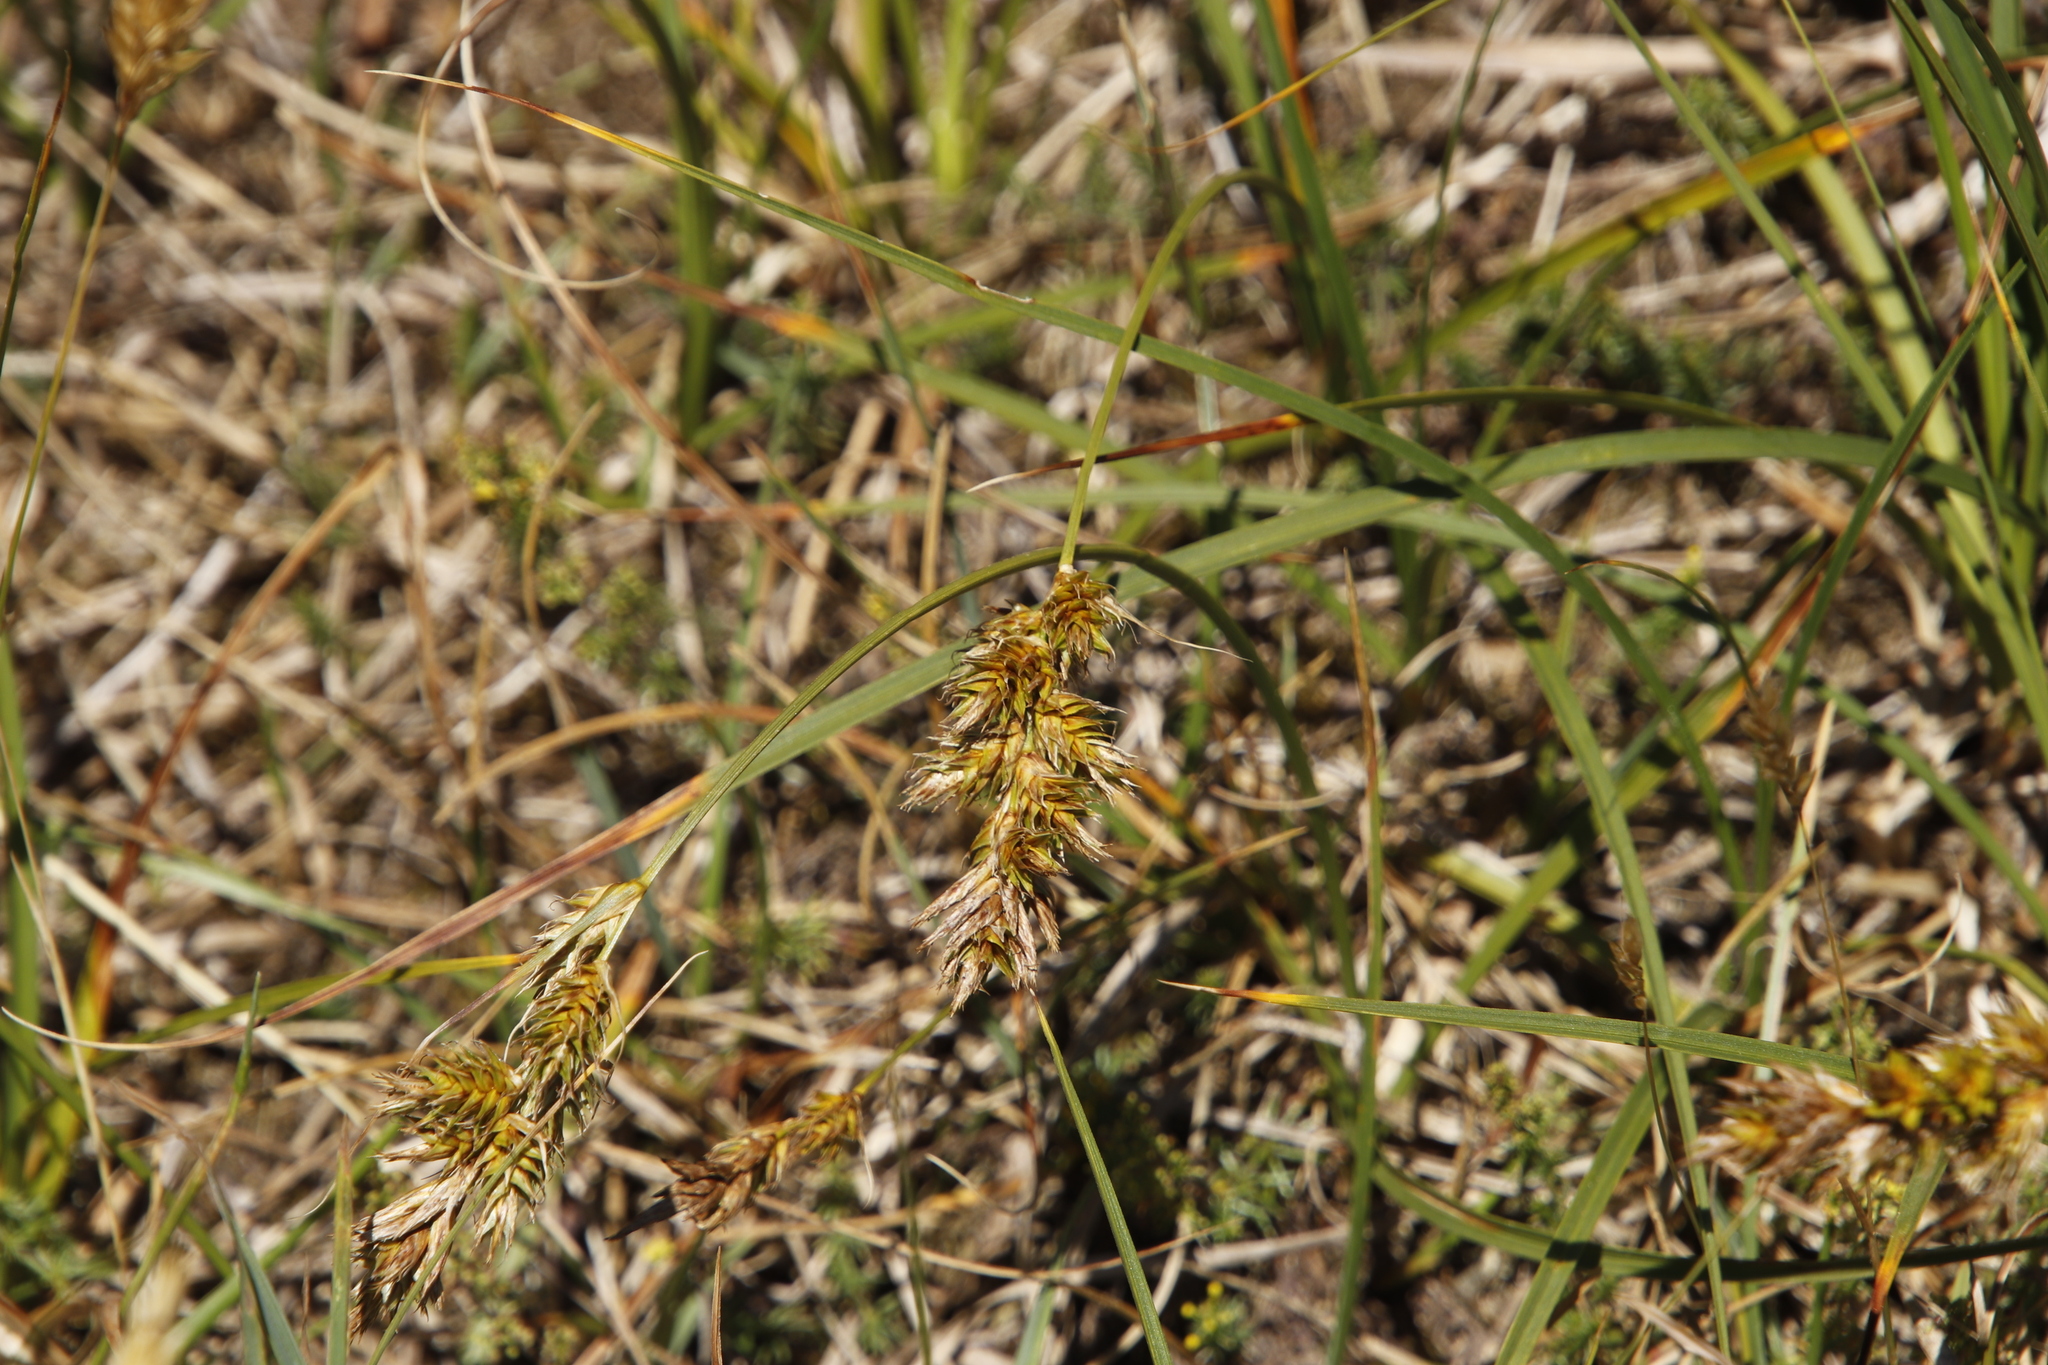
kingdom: Plantae
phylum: Tracheophyta
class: Liliopsida
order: Poales
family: Cyperaceae
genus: Carex
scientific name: Carex arenaria
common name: Sand sedge
